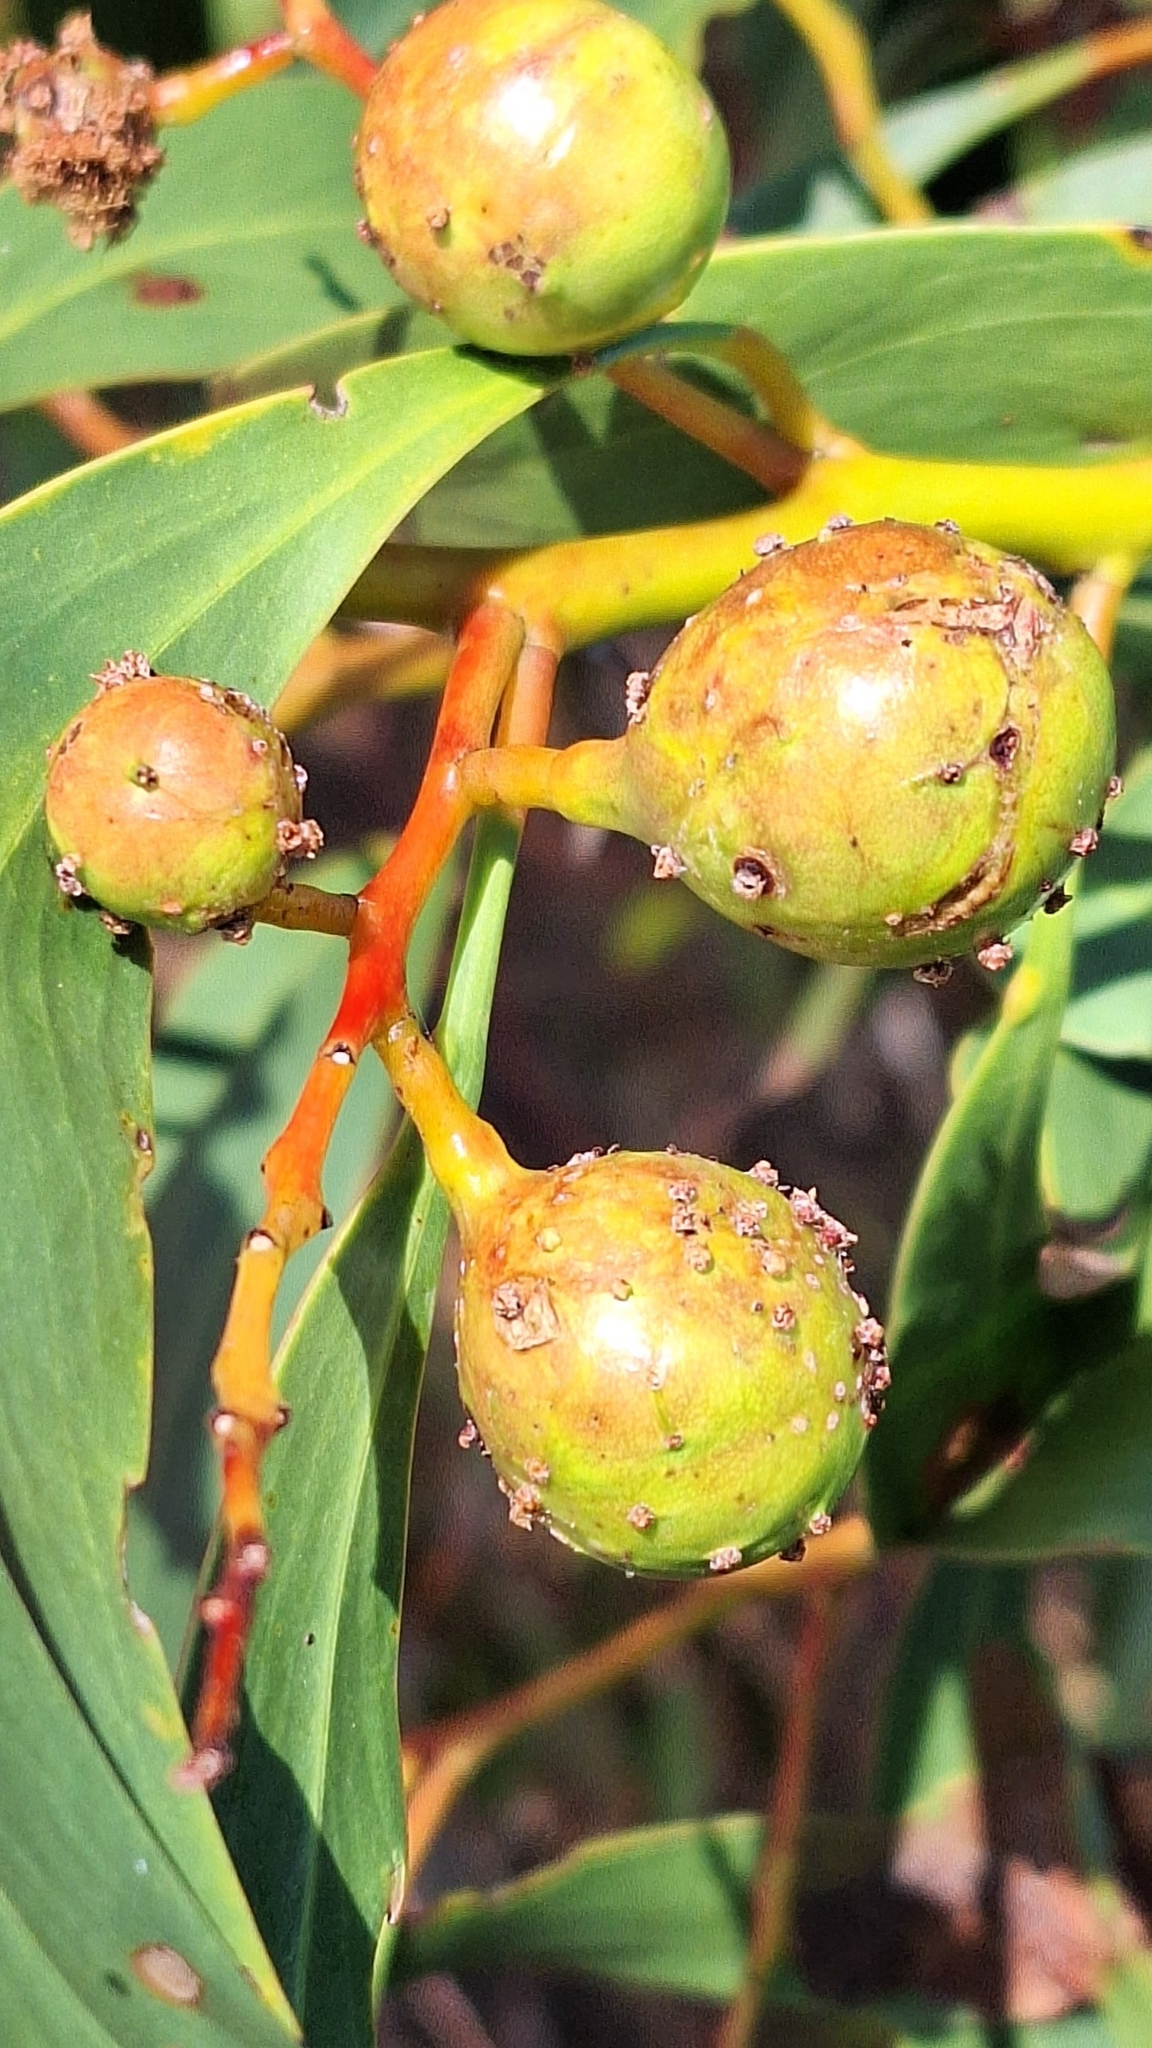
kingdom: Animalia
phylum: Arthropoda
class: Insecta
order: Hymenoptera
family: Pteromalidae
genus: Trichilogaster
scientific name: Trichilogaster signiventris
